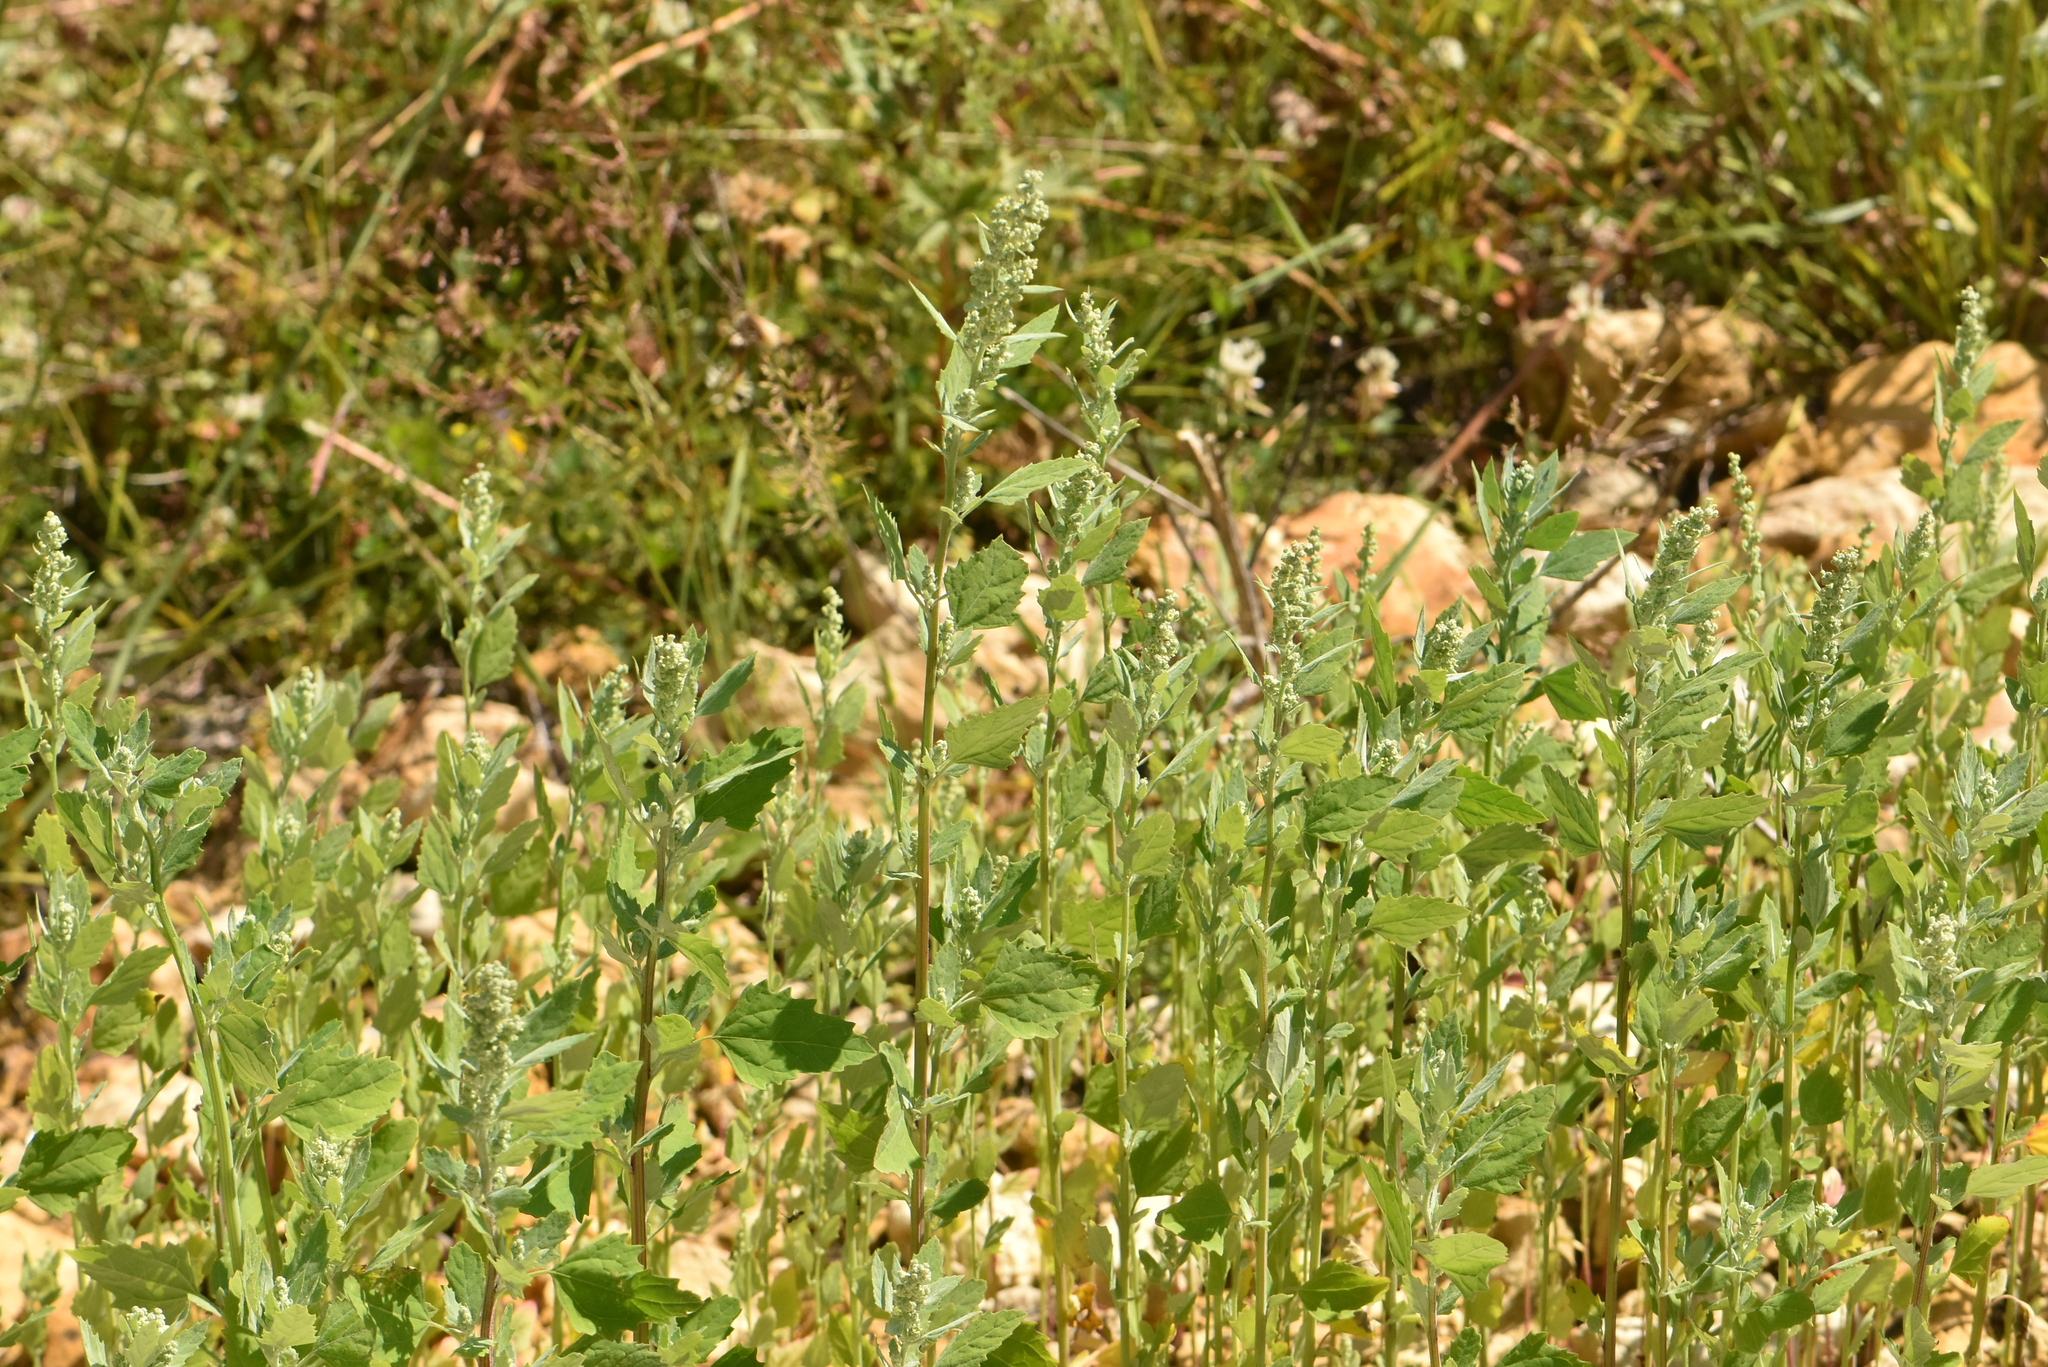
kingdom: Plantae
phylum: Tracheophyta
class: Magnoliopsida
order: Caryophyllales
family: Amaranthaceae
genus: Chenopodium
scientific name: Chenopodium album
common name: Fat-hen
